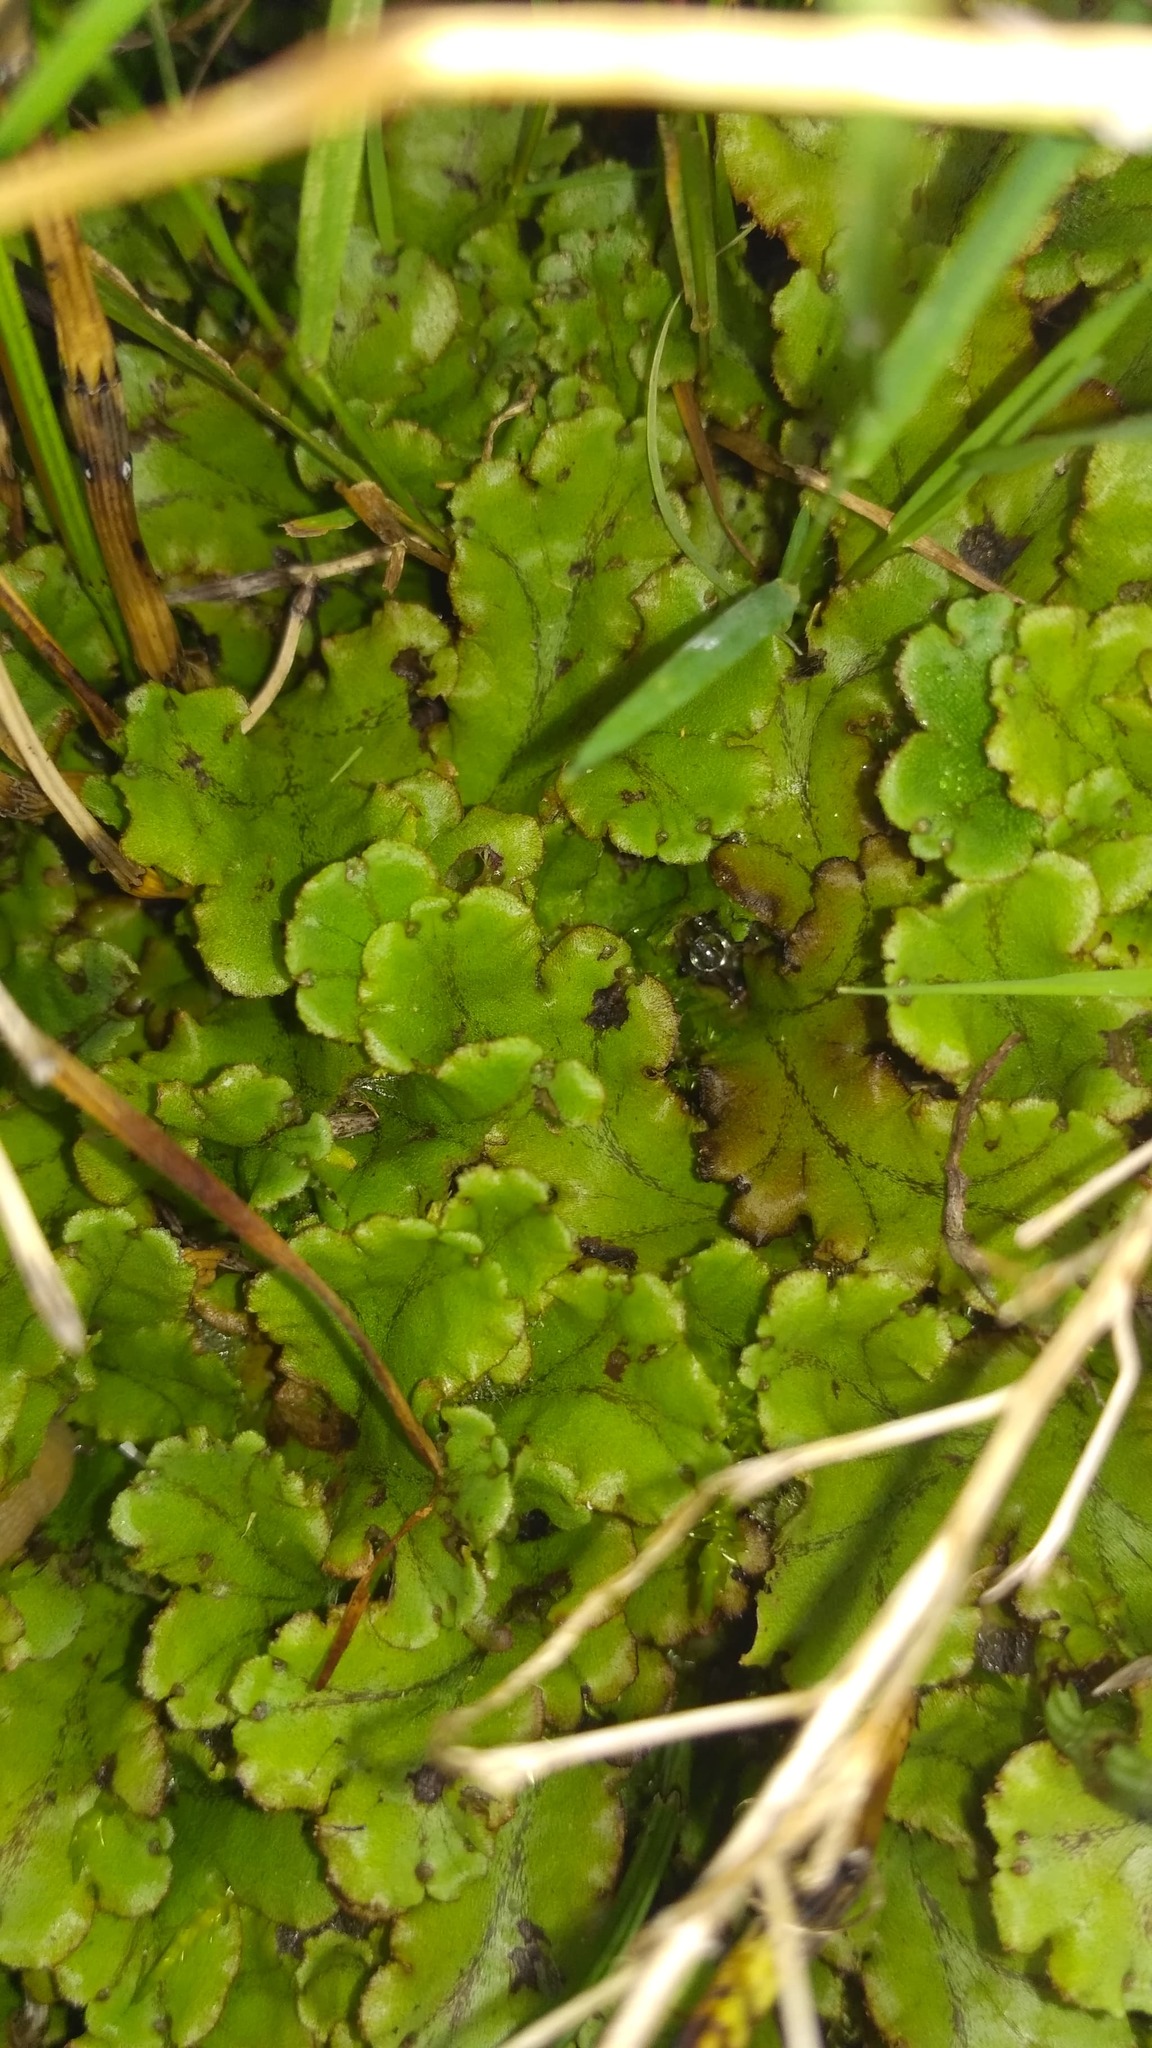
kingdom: Plantae
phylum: Marchantiophyta
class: Marchantiopsida
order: Marchantiales
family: Marchantiaceae
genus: Marchantia
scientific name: Marchantia polymorpha
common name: Common liverwort
